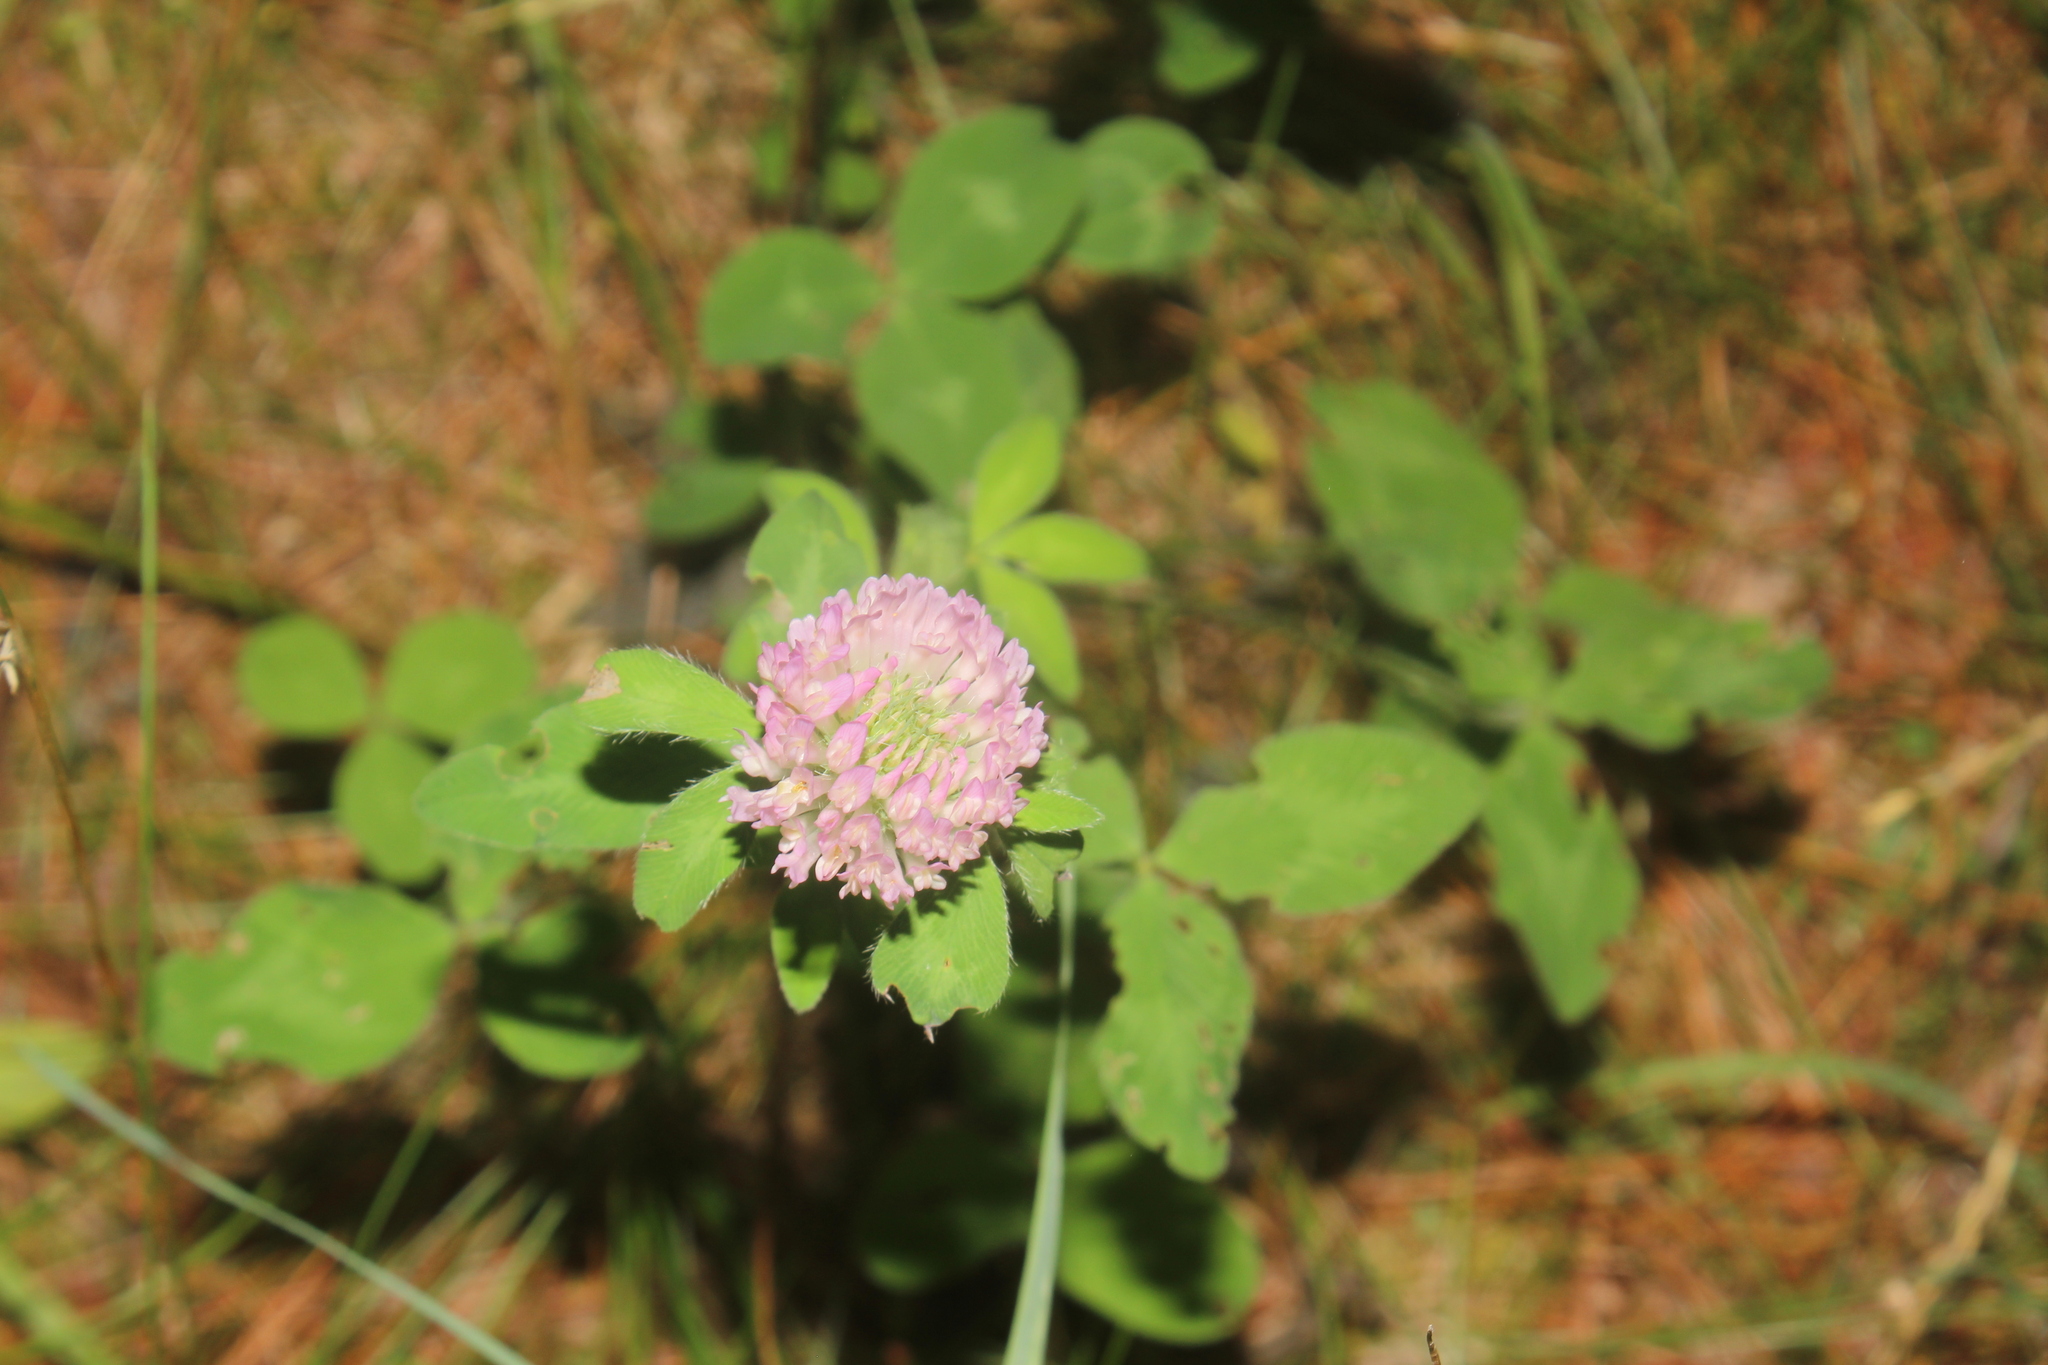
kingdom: Plantae
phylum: Tracheophyta
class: Magnoliopsida
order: Fabales
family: Fabaceae
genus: Trifolium
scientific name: Trifolium pratense
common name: Red clover
